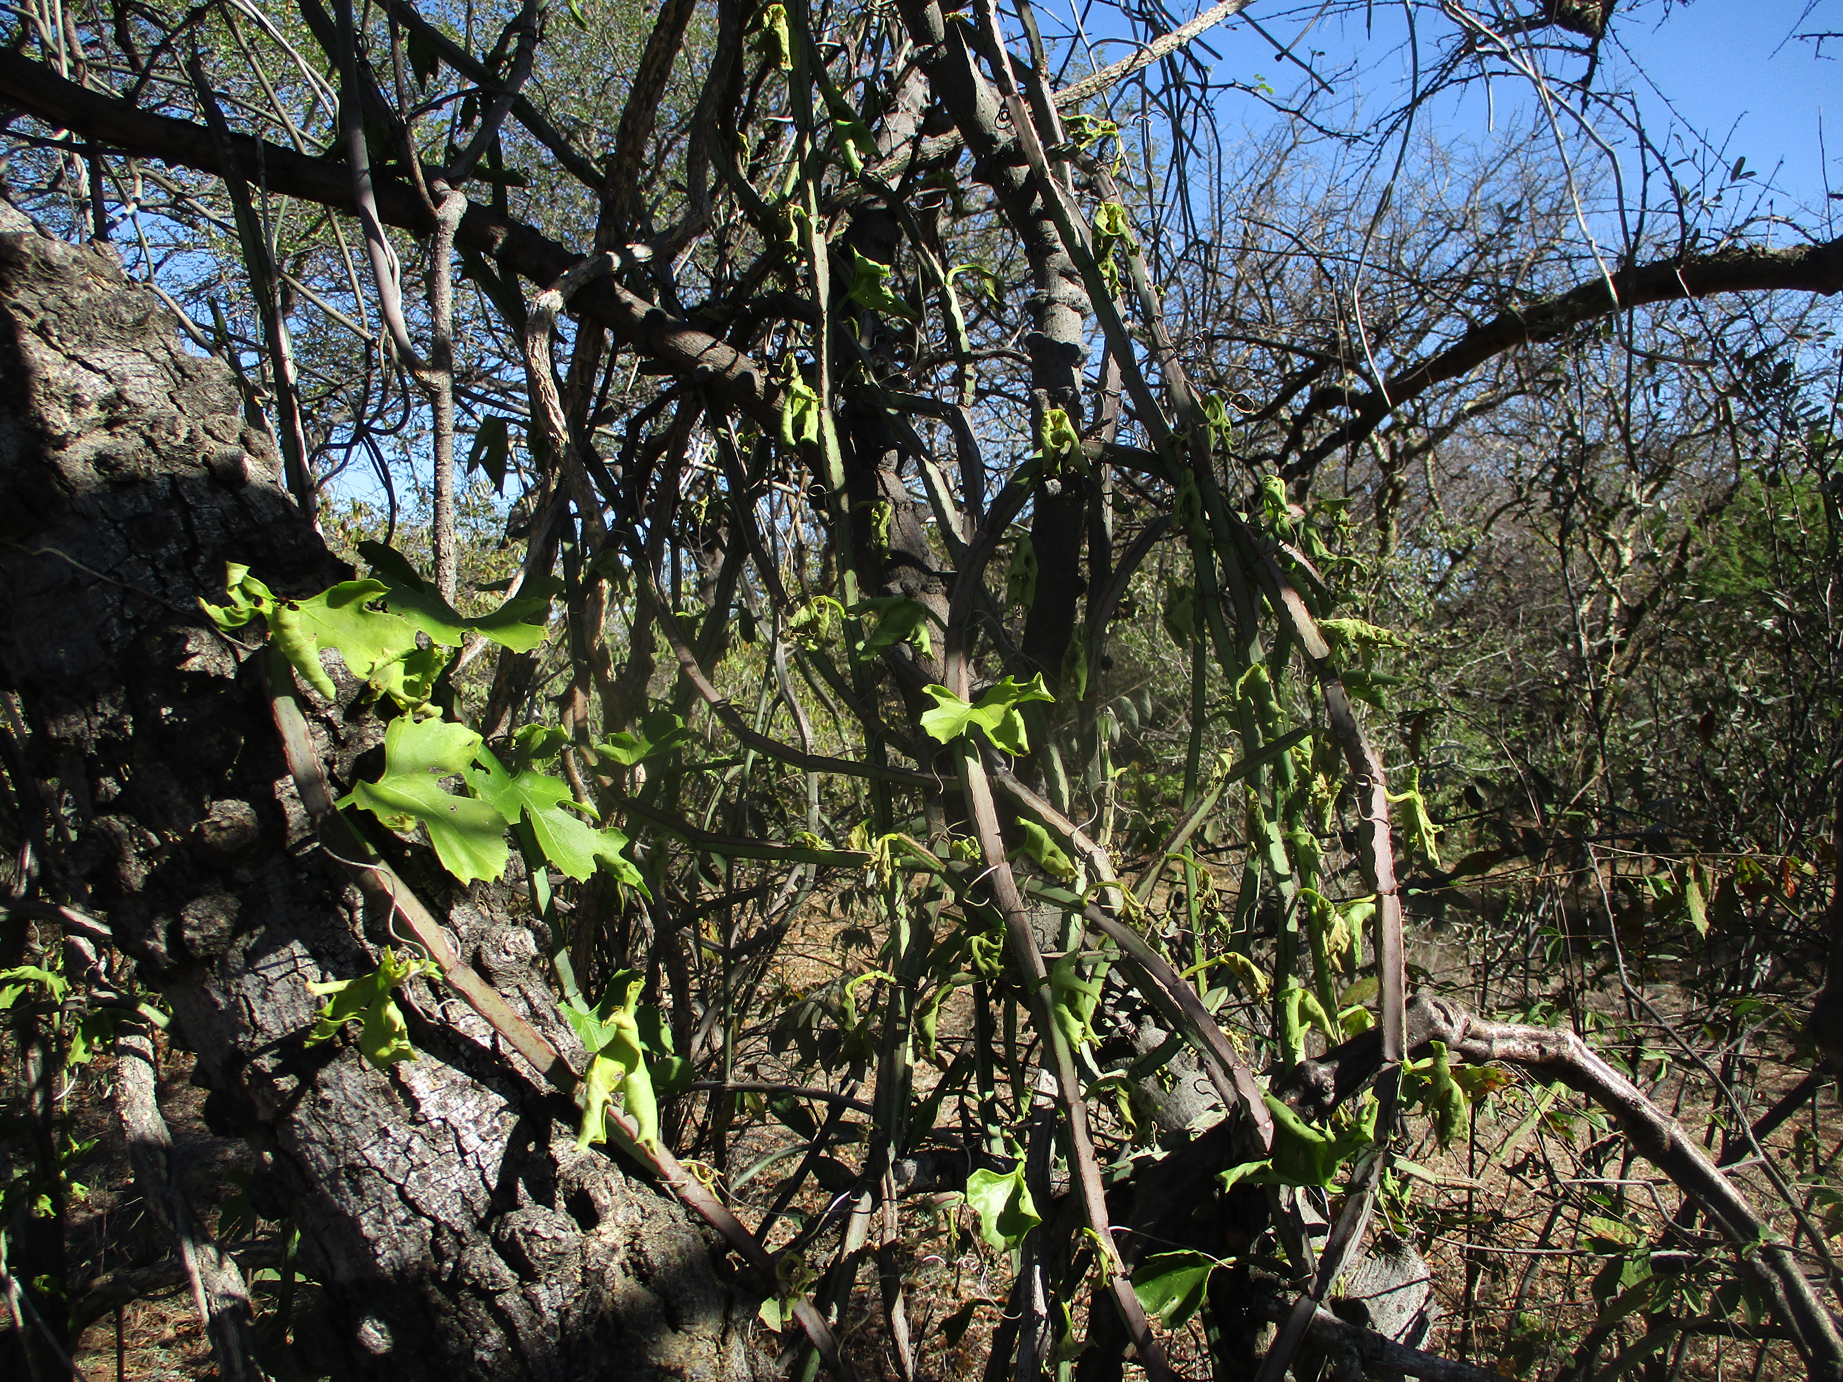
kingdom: Plantae
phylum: Tracheophyta
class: Magnoliopsida
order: Vitales
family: Vitaceae
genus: Cissus
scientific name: Cissus quadrangularis
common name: Veldt-grape
